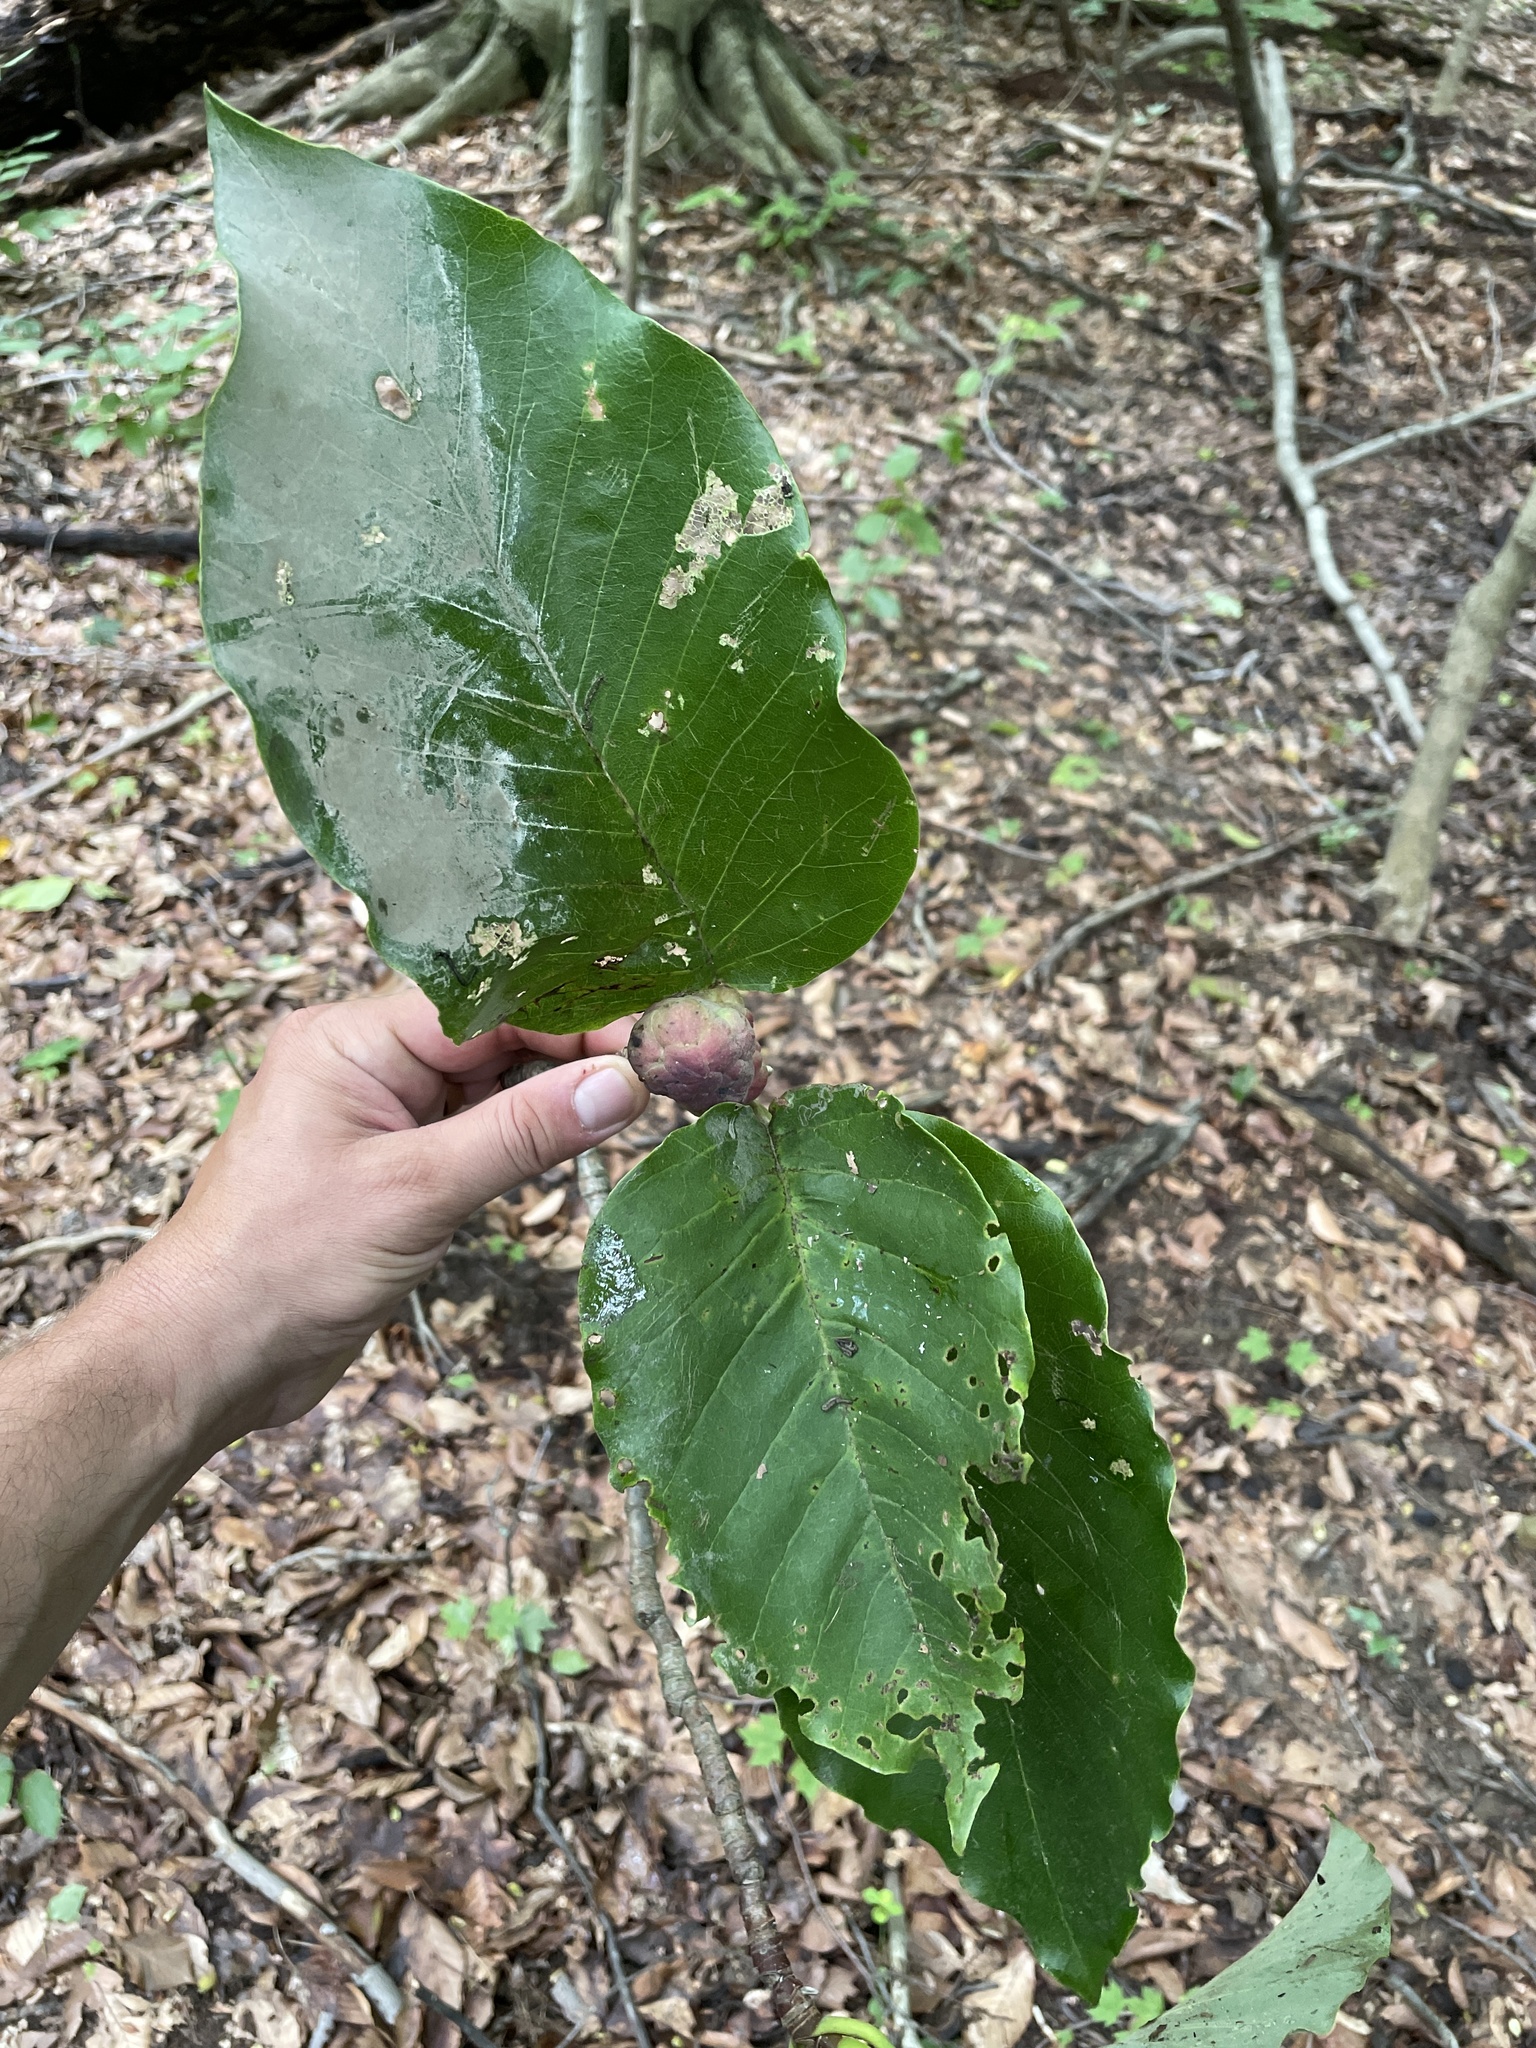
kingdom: Plantae
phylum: Tracheophyta
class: Magnoliopsida
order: Magnoliales
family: Magnoliaceae
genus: Magnolia
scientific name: Magnolia acuminata
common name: Cucumber magnolia
